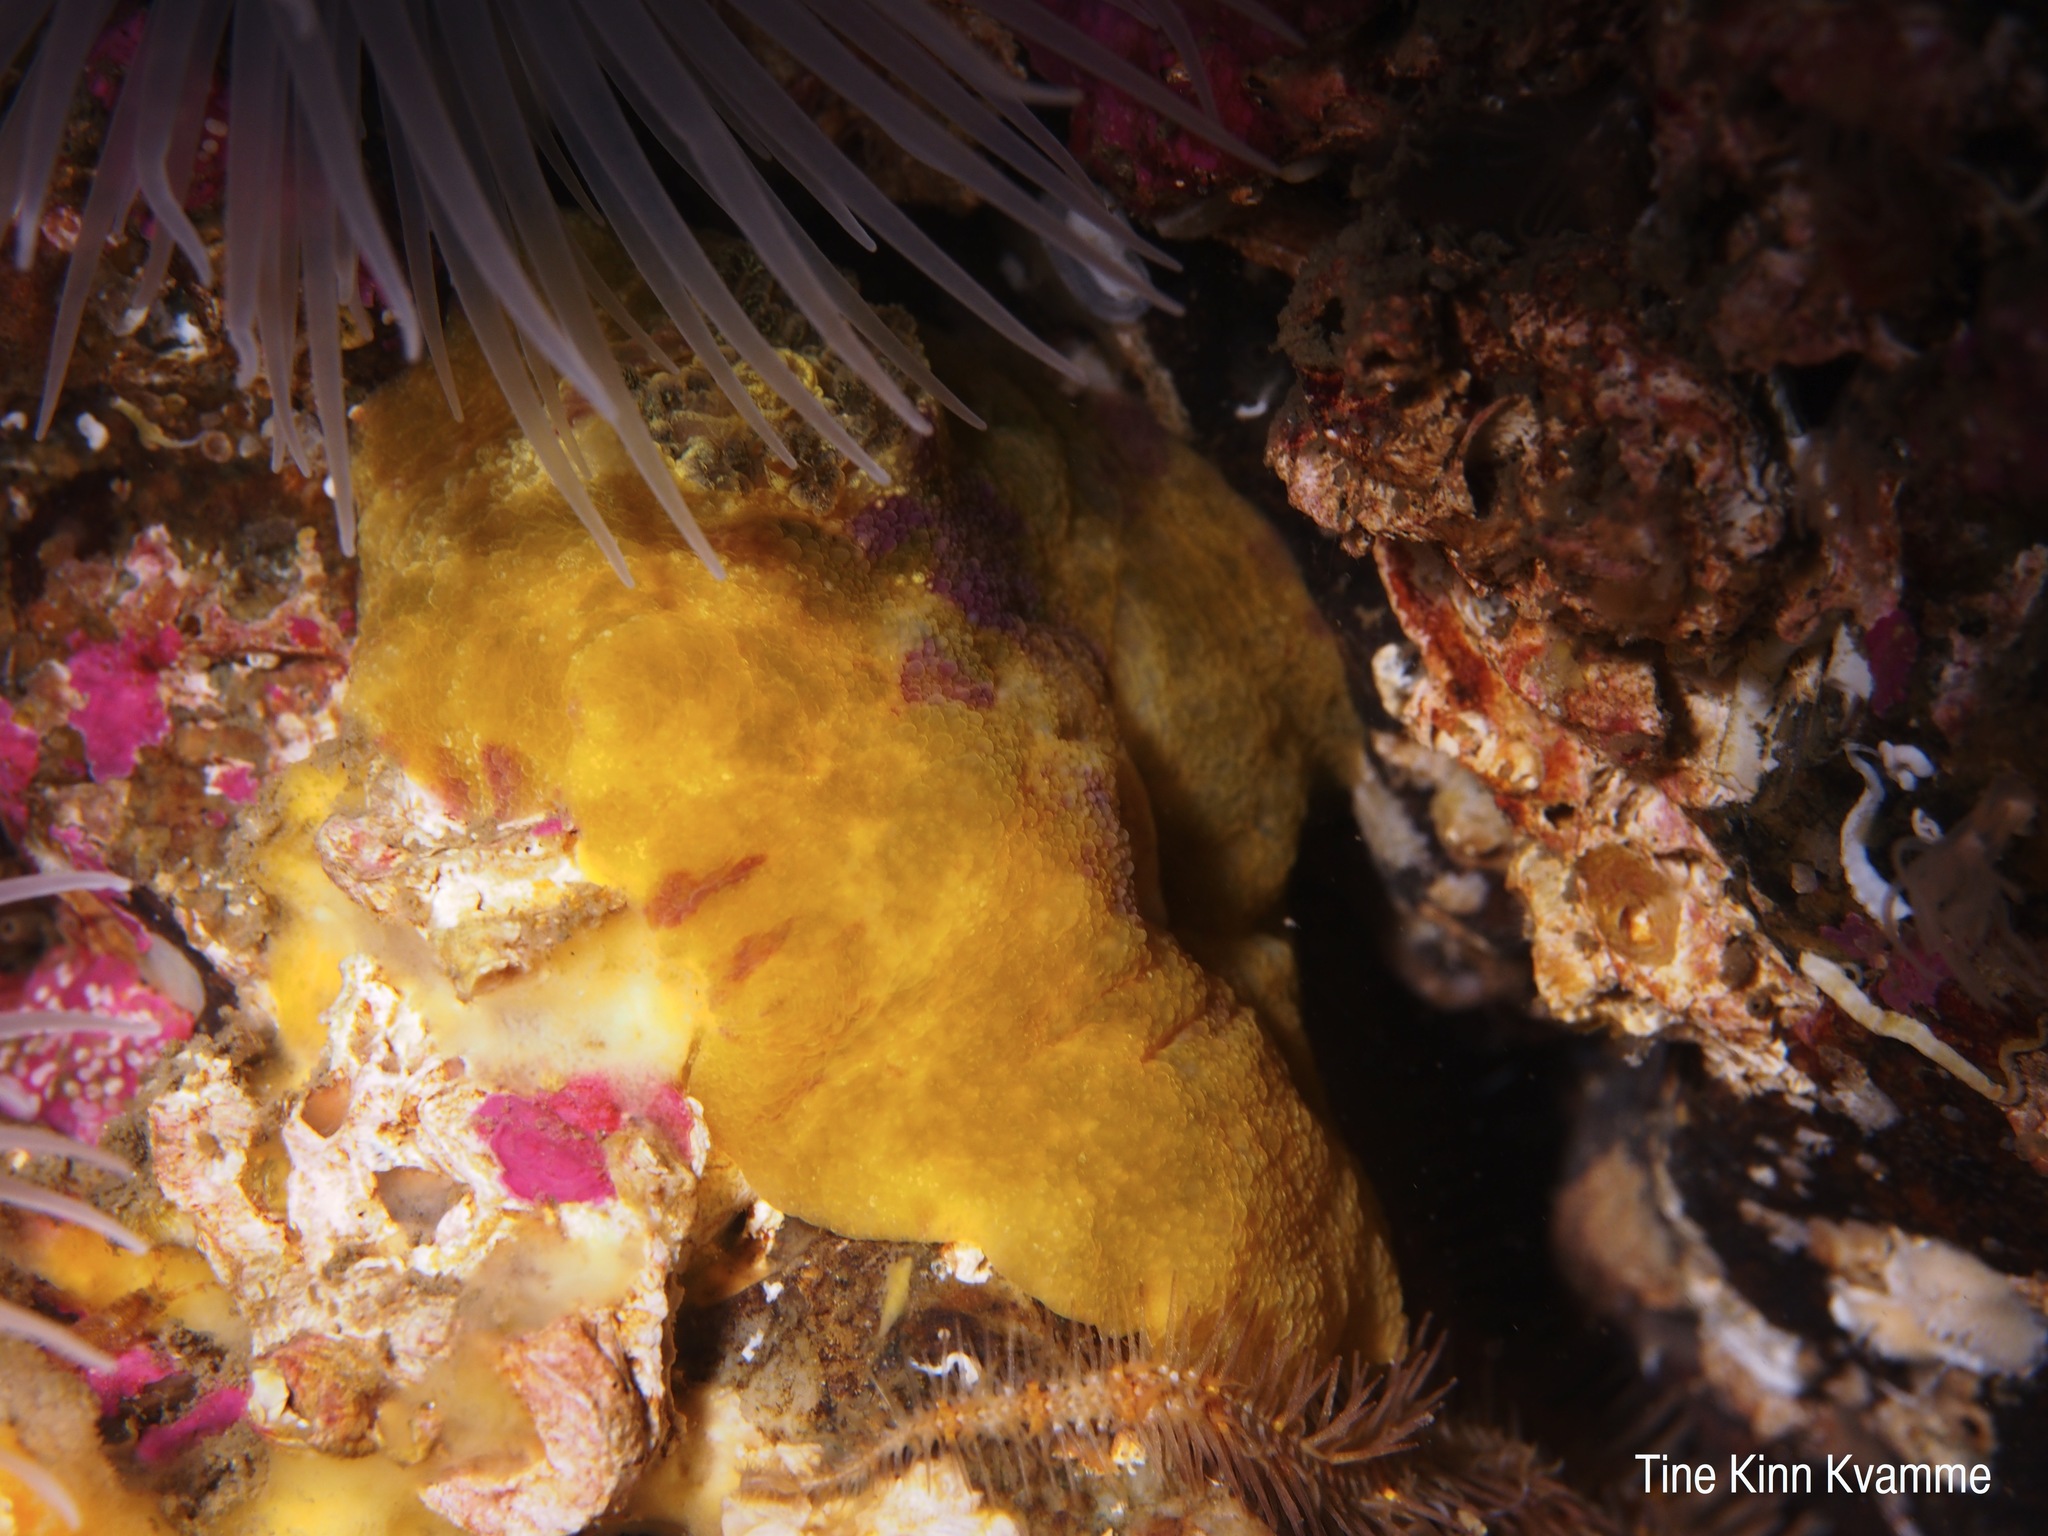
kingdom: Animalia
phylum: Mollusca
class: Gastropoda
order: Nudibranchia
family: Dorididae
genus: Doris
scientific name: Doris pseudoargus
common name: Sea lemon
